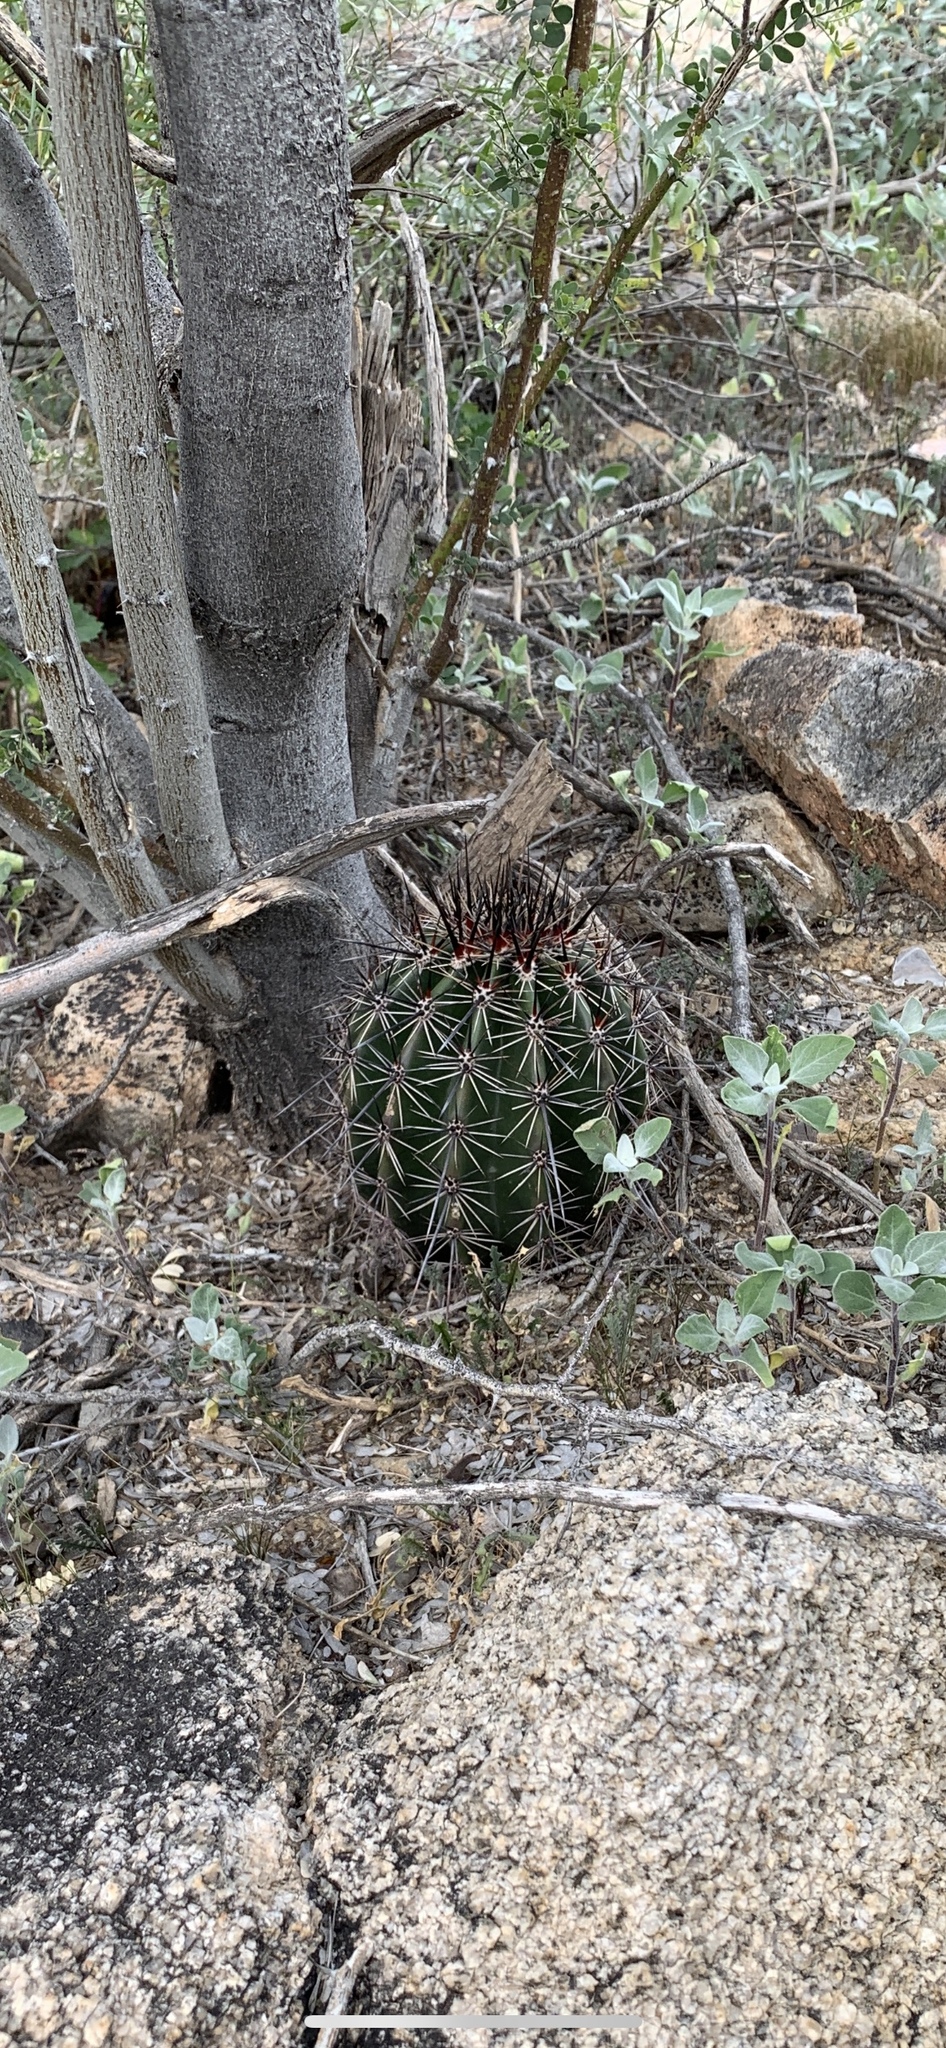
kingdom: Plantae
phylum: Tracheophyta
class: Magnoliopsida
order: Caryophyllales
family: Cactaceae
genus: Carnegiea
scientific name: Carnegiea gigantea
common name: Saguaro
